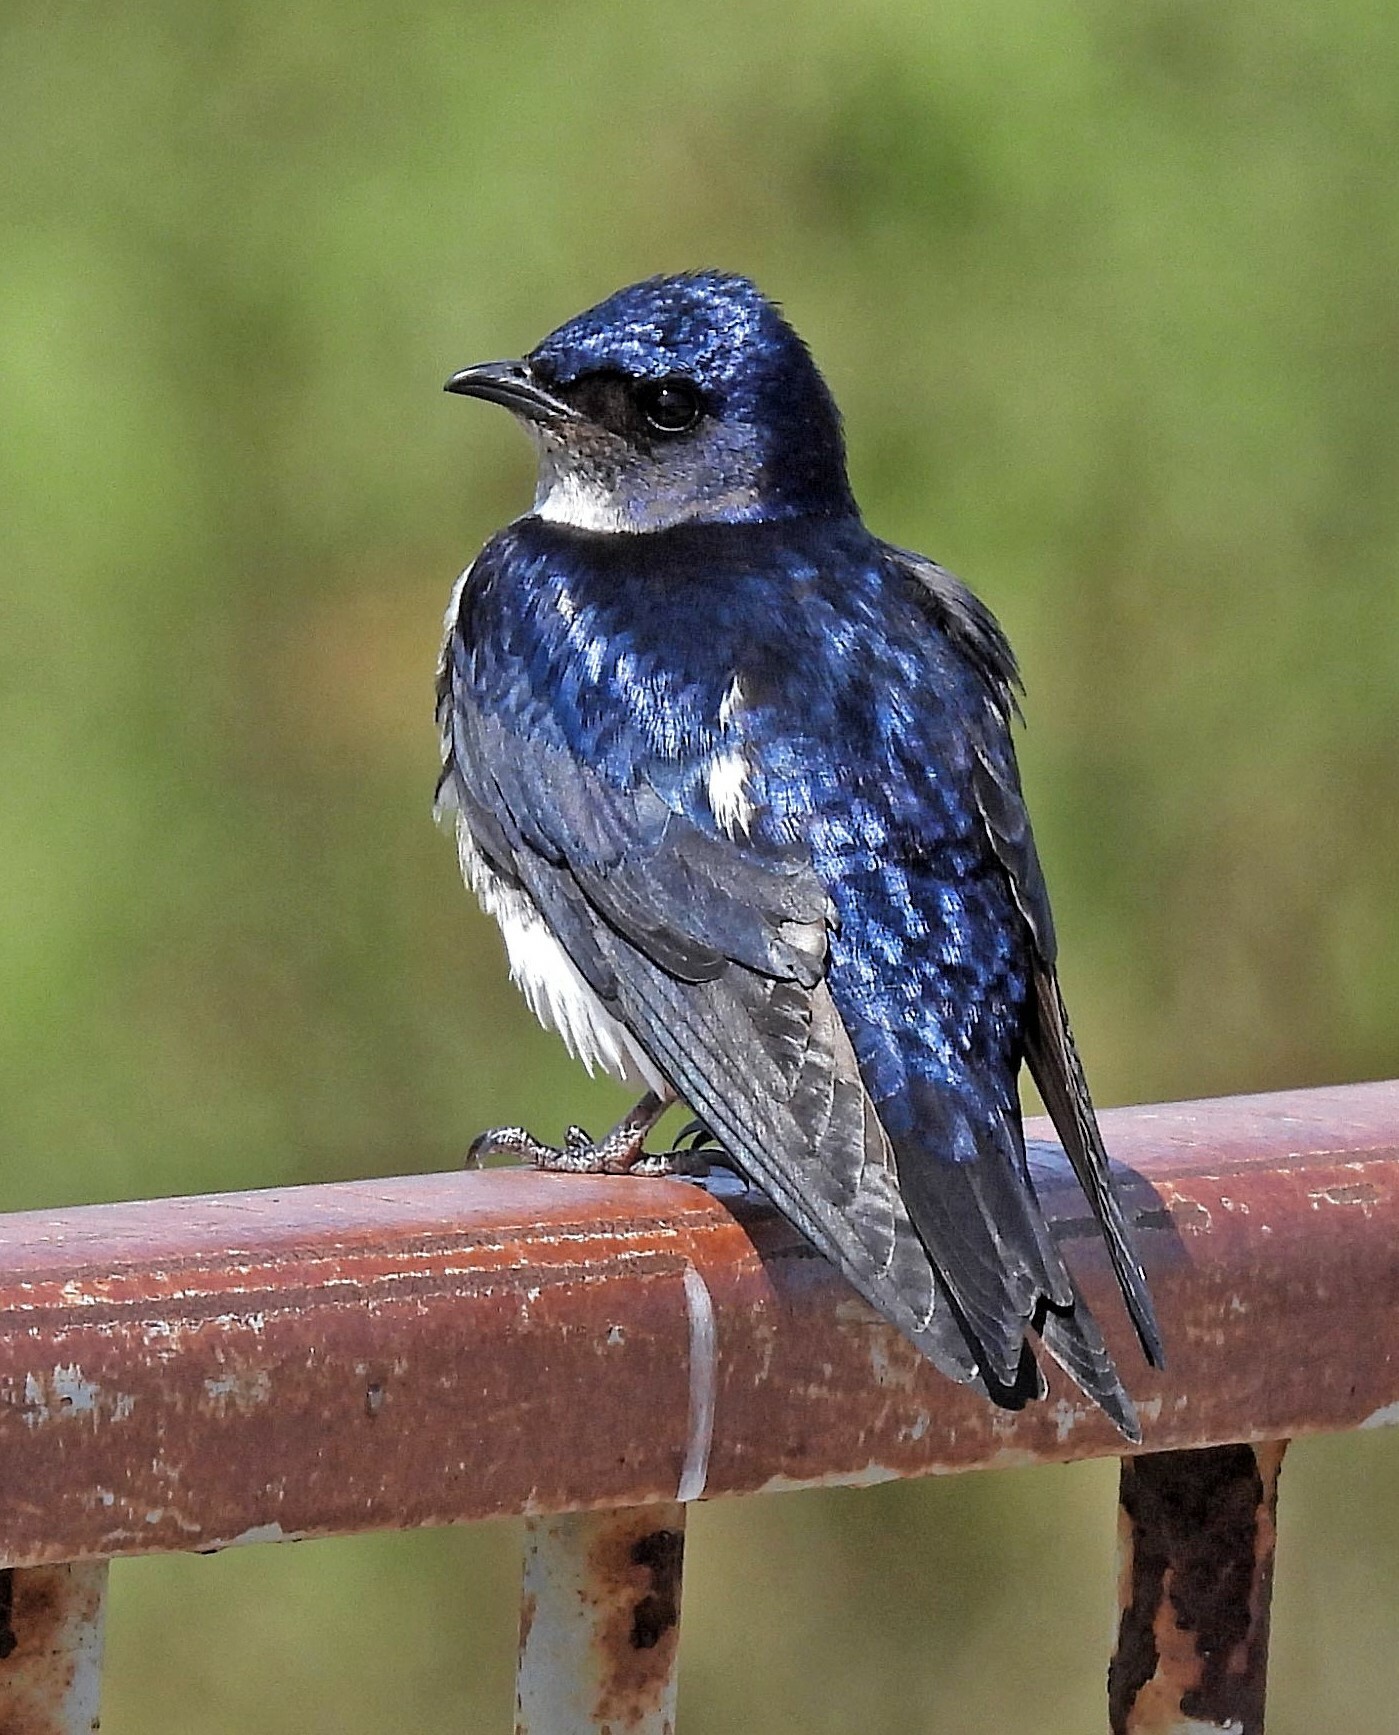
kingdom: Animalia
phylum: Chordata
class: Aves
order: Passeriformes
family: Hirundinidae
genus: Progne
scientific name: Progne chalybea
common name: Grey-breasted martin
